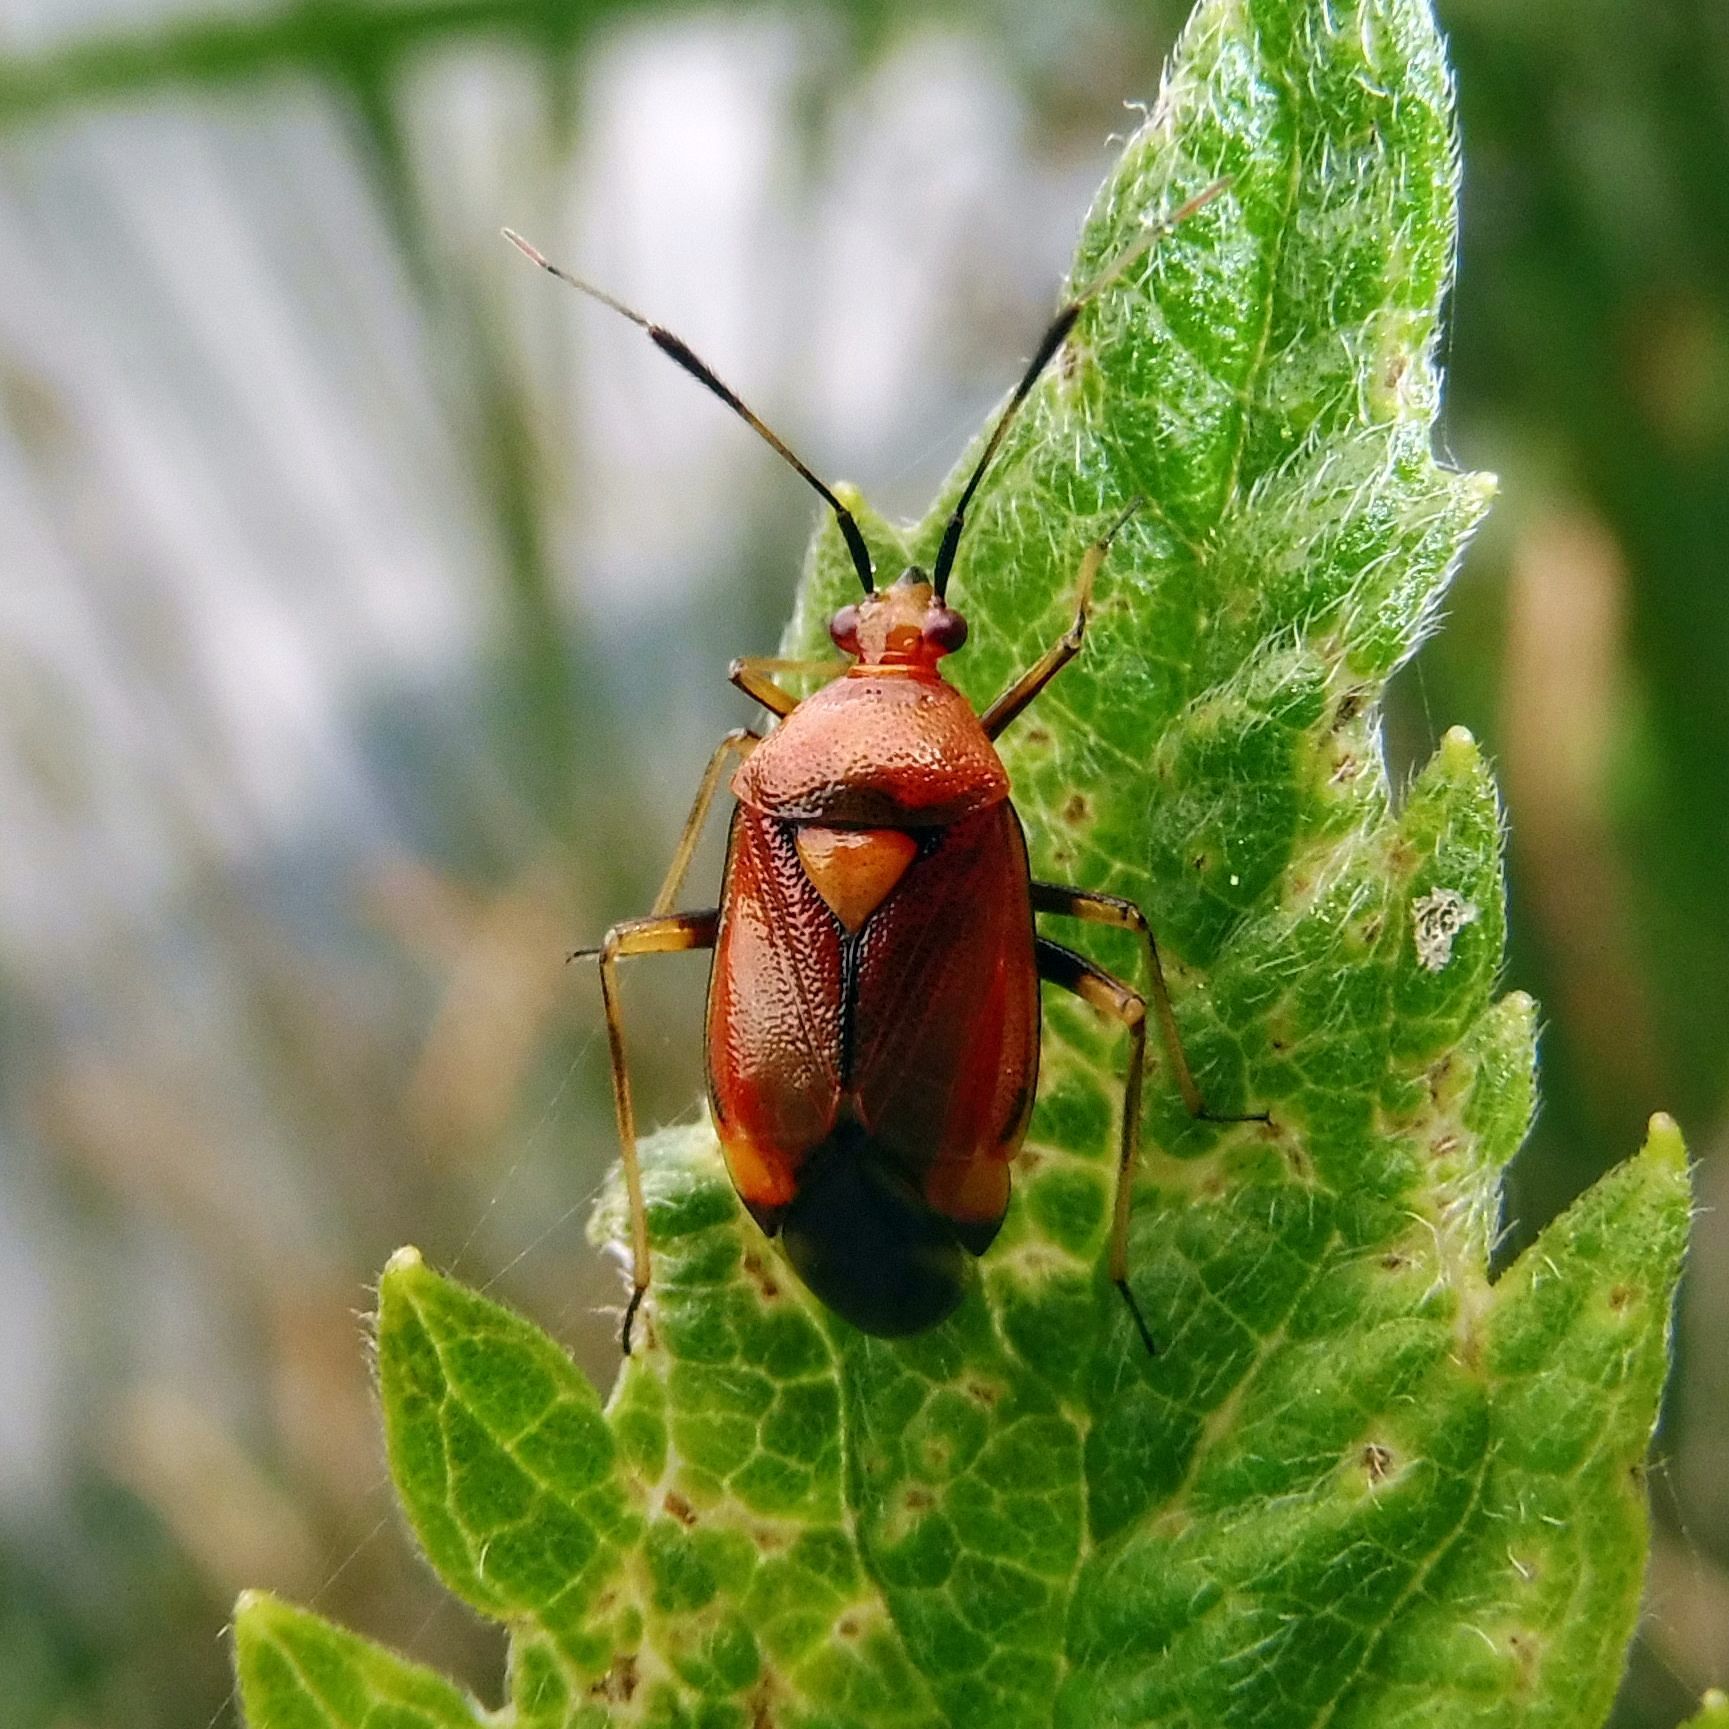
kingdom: Animalia
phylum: Arthropoda
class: Insecta
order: Hemiptera
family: Miridae
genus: Deraeocoris
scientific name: Deraeocoris ruber
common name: Plant bug
